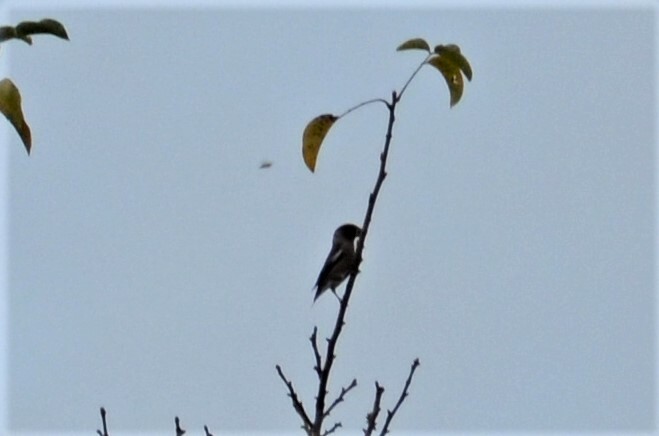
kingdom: Animalia
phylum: Chordata
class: Aves
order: Passeriformes
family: Fringillidae
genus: Coccothraustes
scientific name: Coccothraustes coccothraustes
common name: Hawfinch
